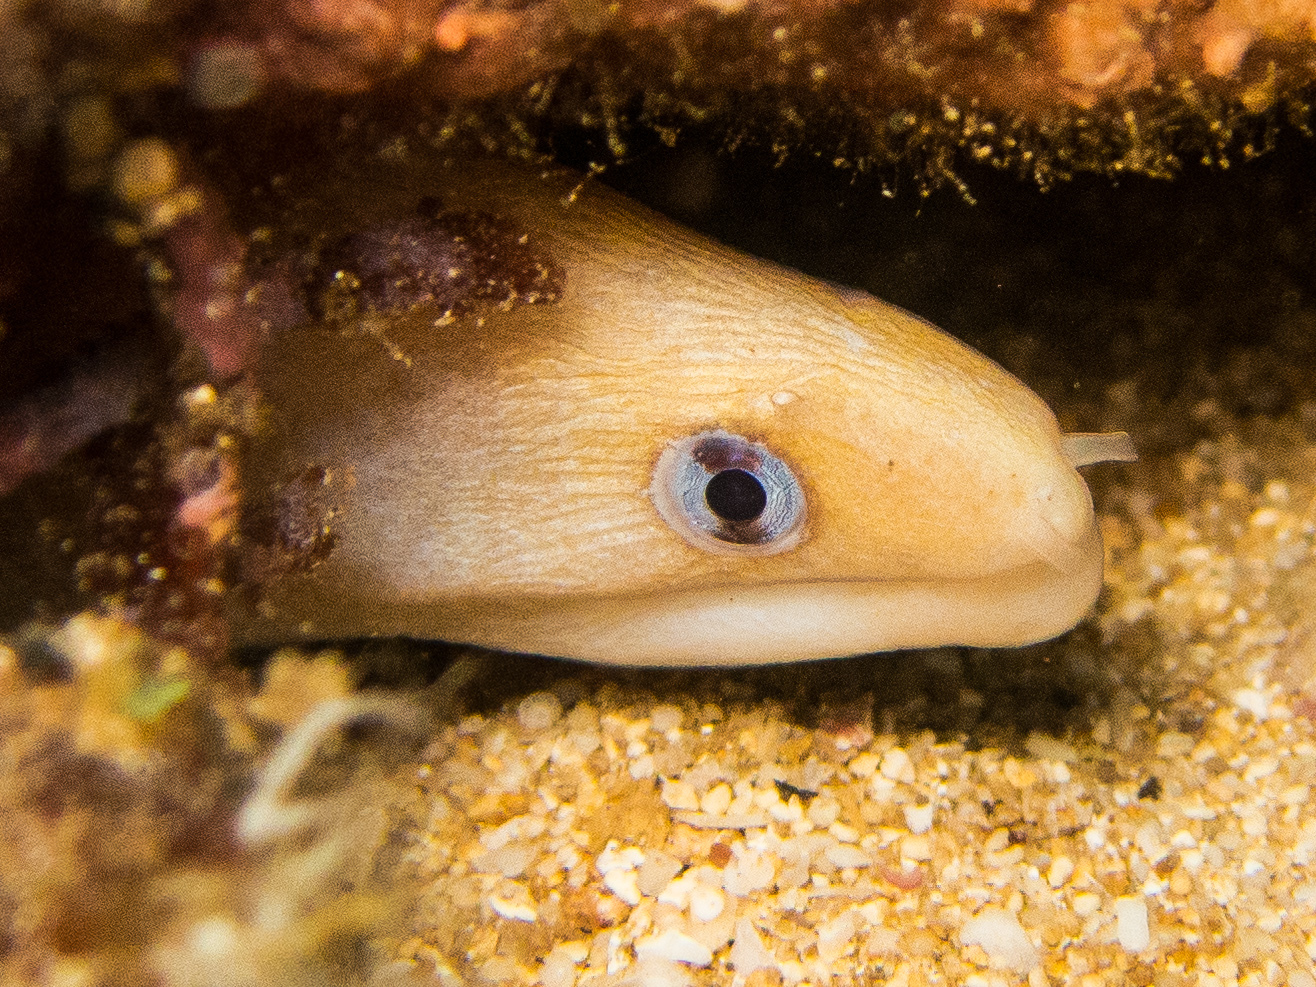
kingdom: Animalia
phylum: Chordata
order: Anguilliformes
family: Muraenidae
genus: Gymnothorax
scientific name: Gymnothorax melatremus
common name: Dwarf moray
